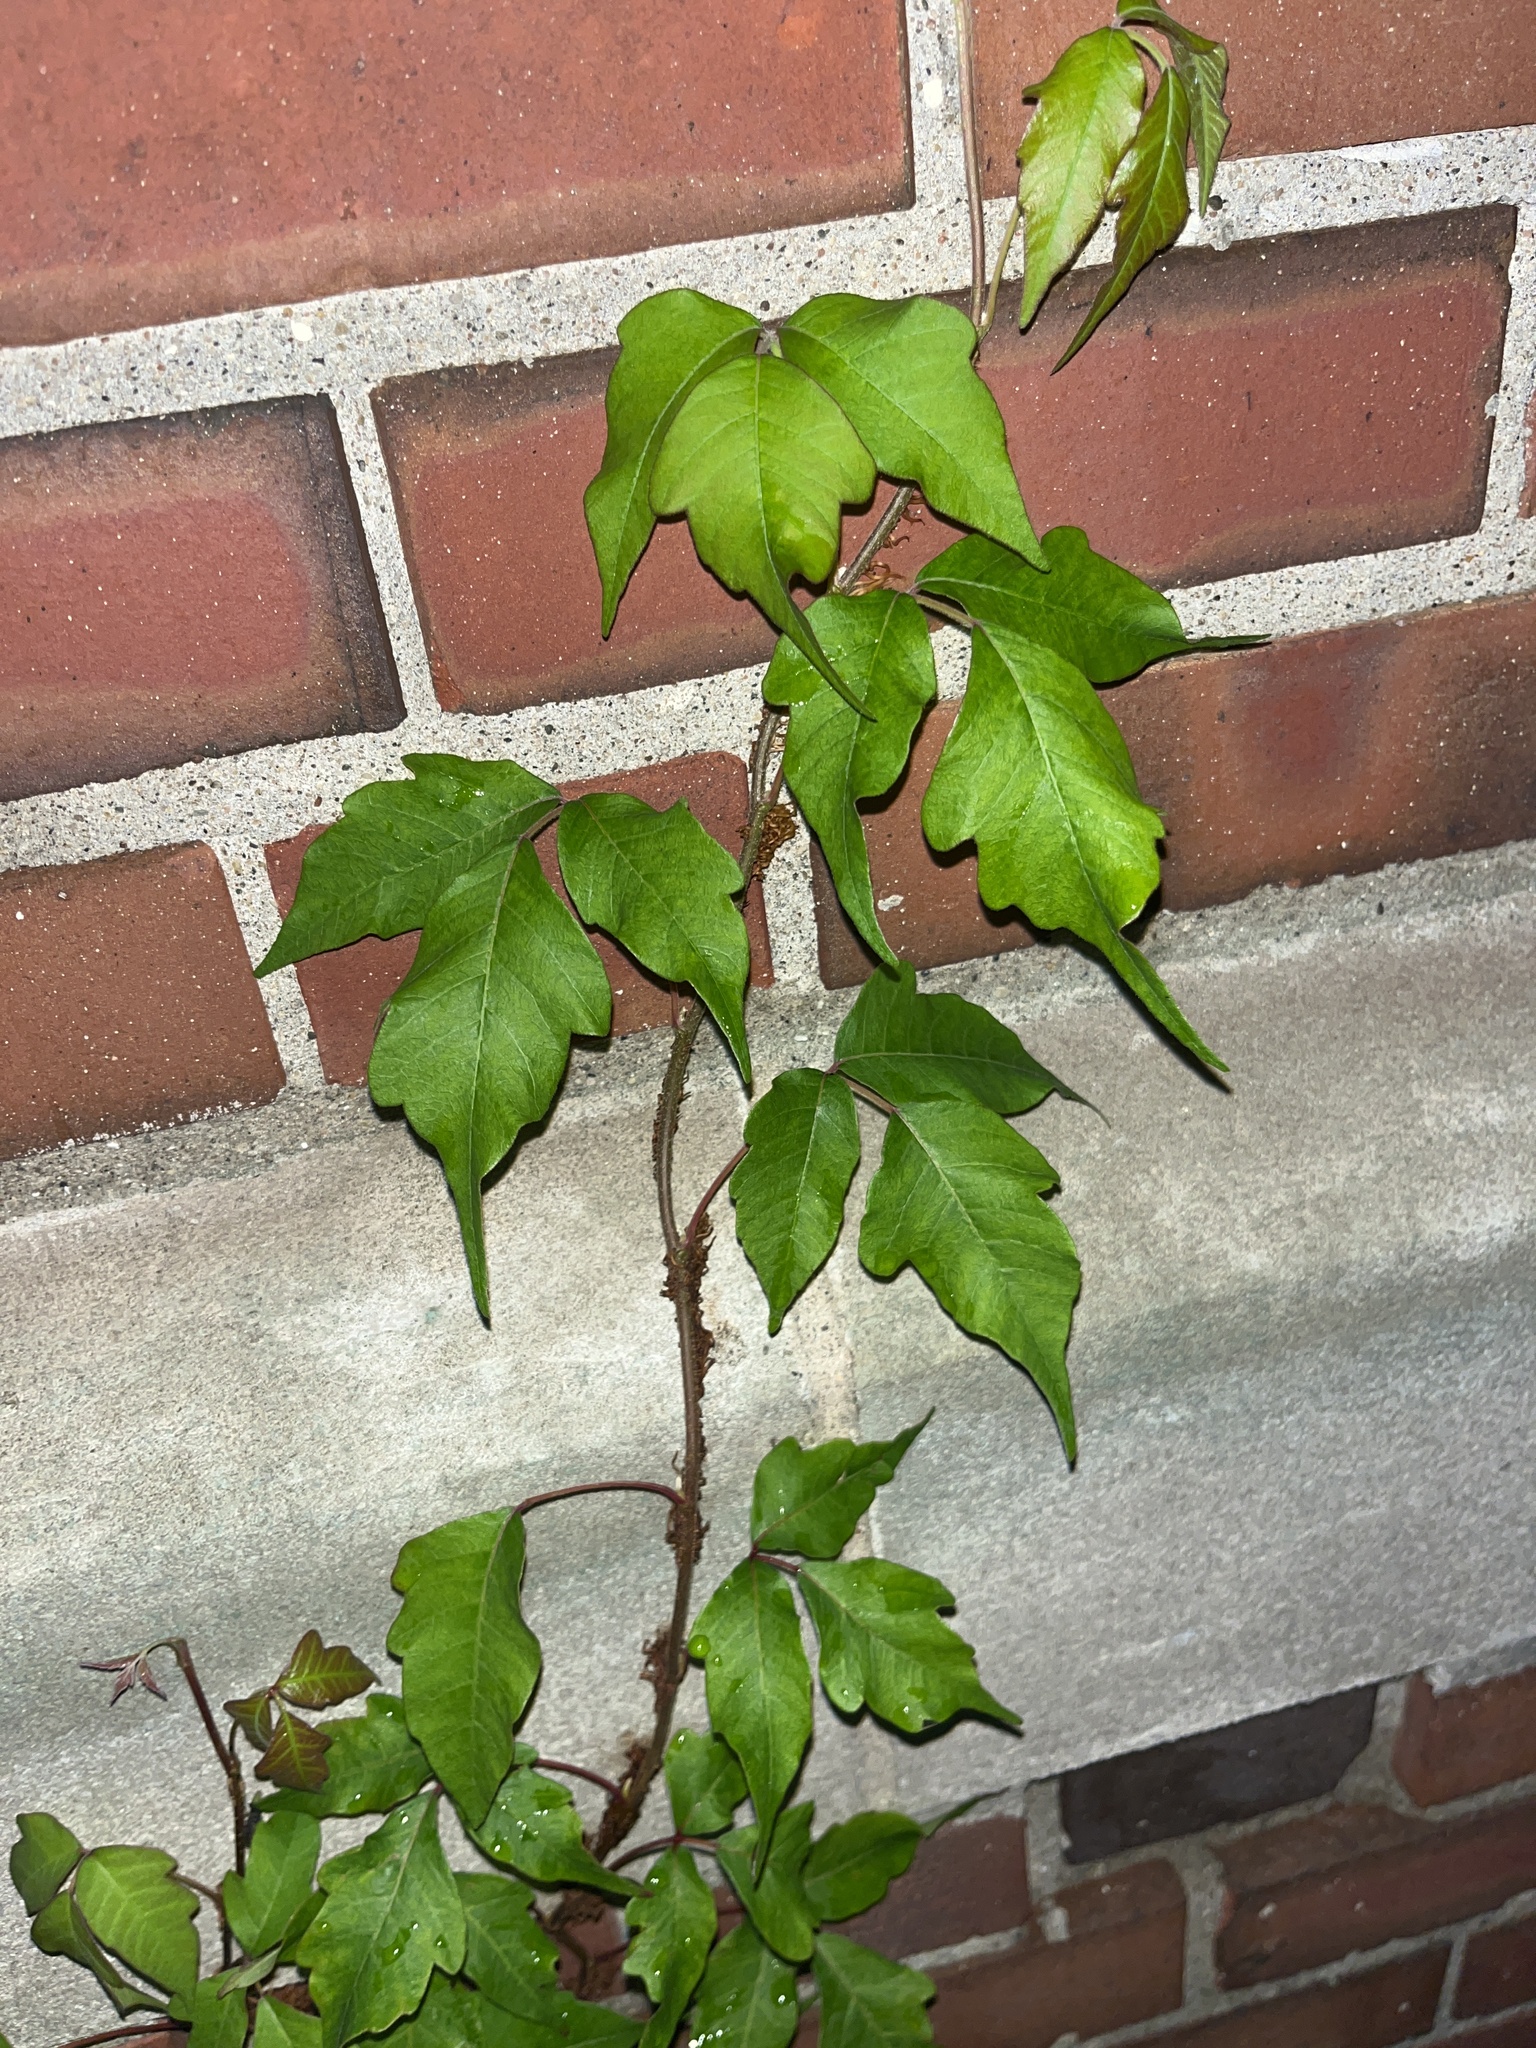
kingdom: Plantae
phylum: Tracheophyta
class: Magnoliopsida
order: Sapindales
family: Anacardiaceae
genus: Toxicodendron
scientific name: Toxicodendron radicans
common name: Poison ivy
